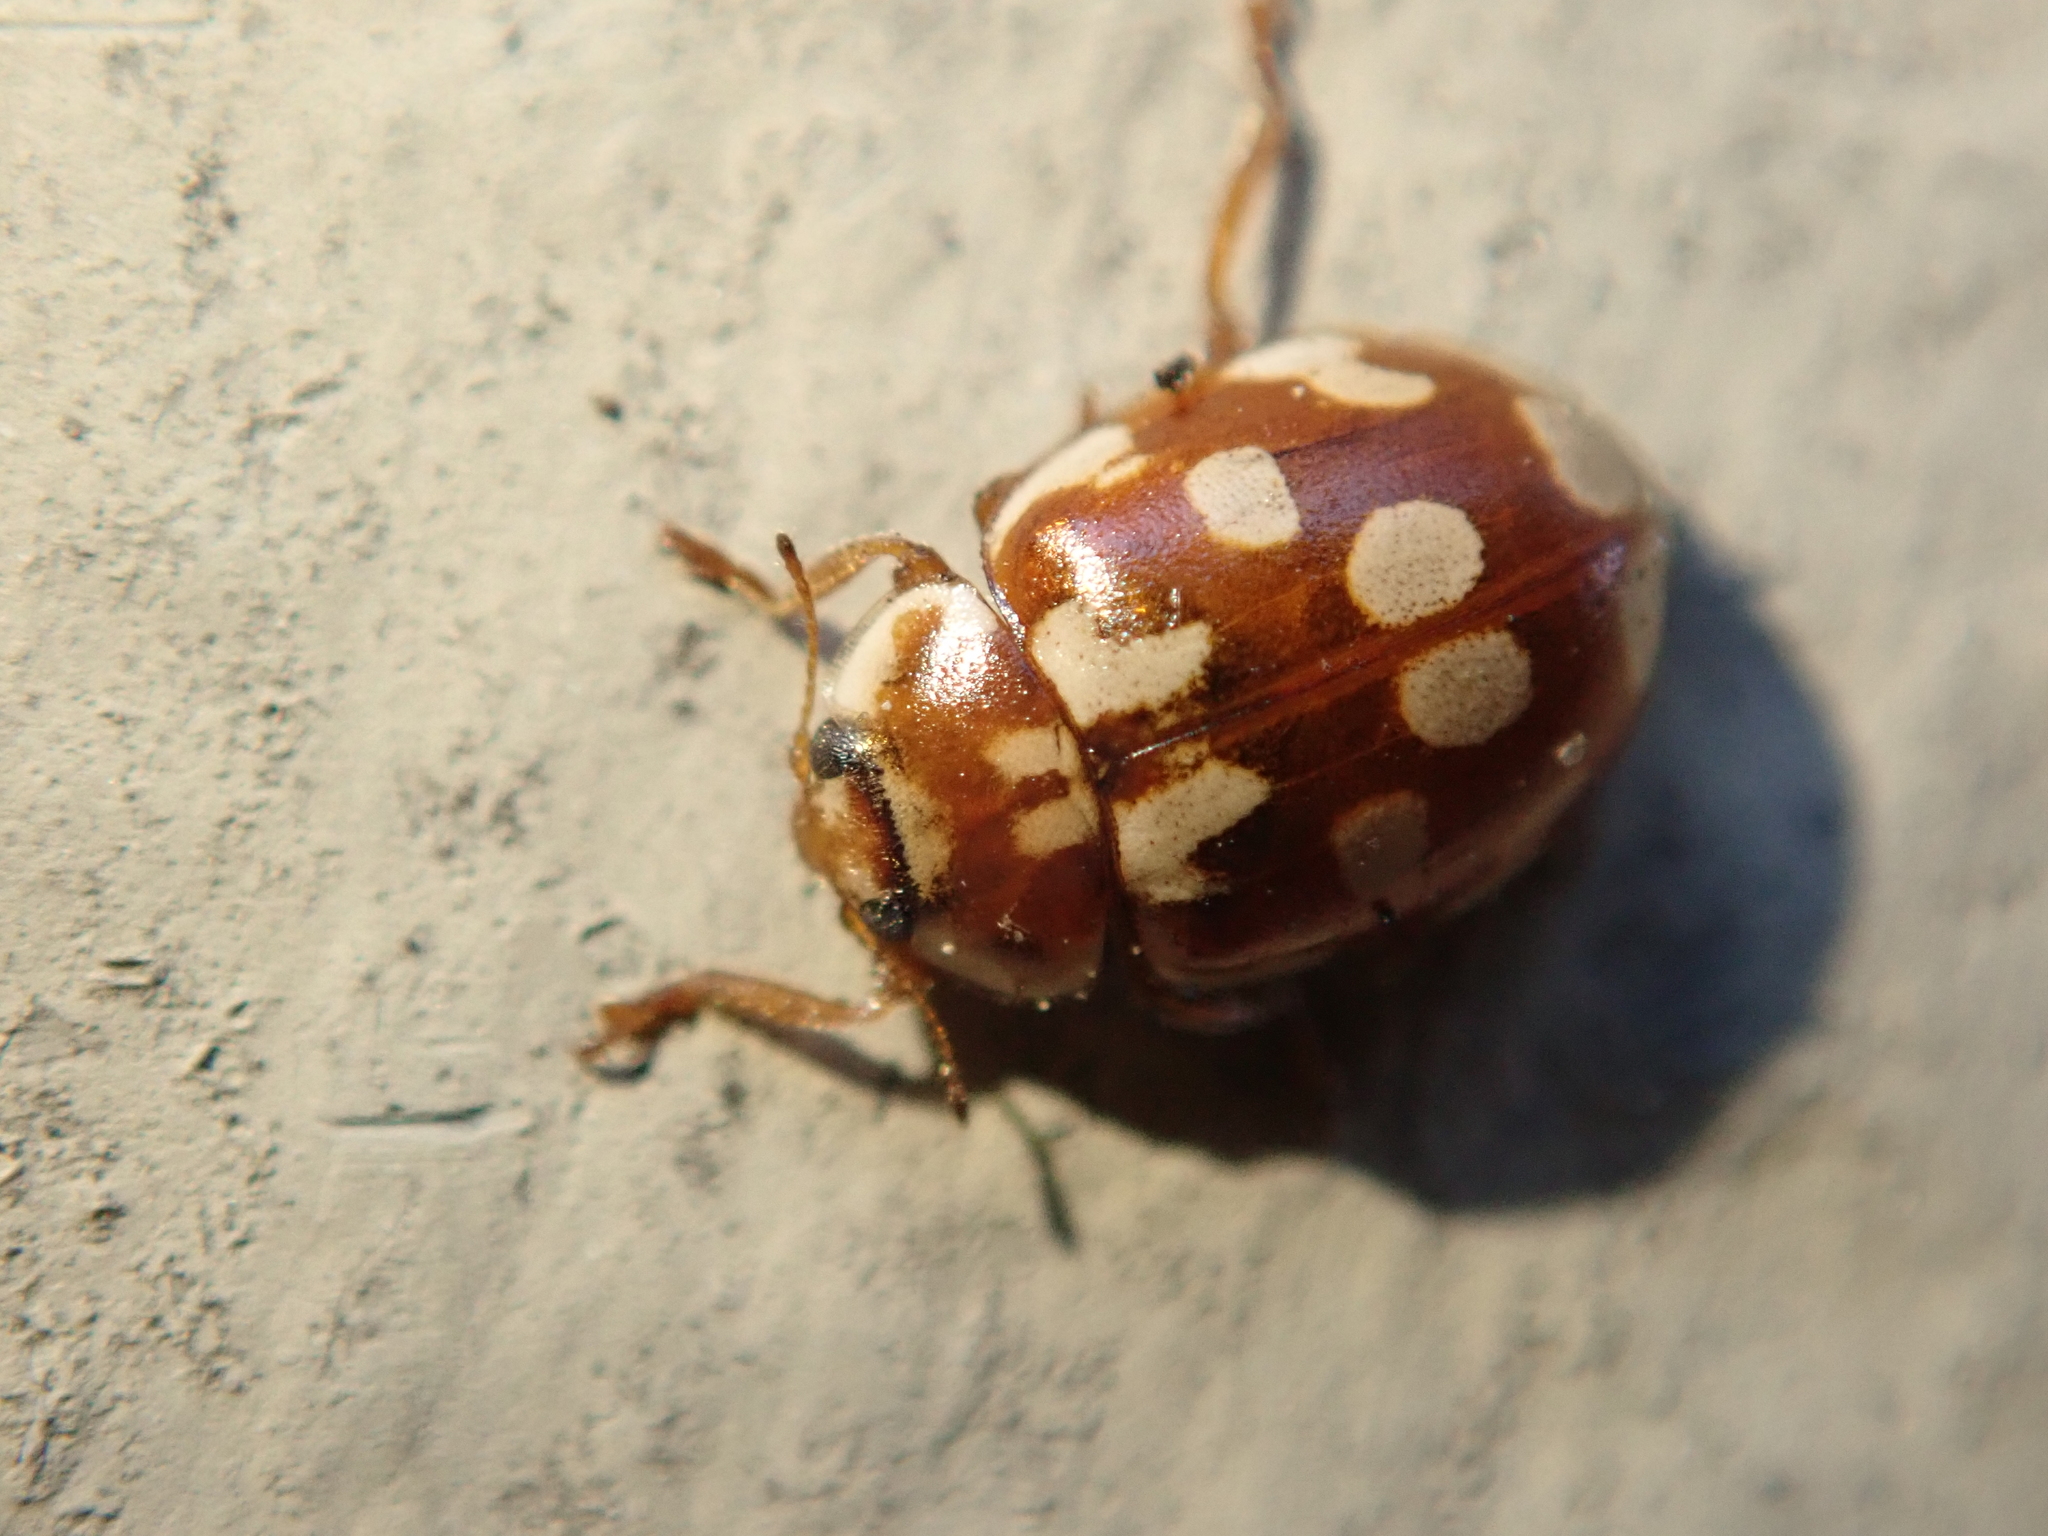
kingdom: Animalia
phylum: Arthropoda
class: Insecta
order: Coleoptera
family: Coccinellidae
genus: Myrrha
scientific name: Myrrha octodecimguttata
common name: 18-spot ladybird
